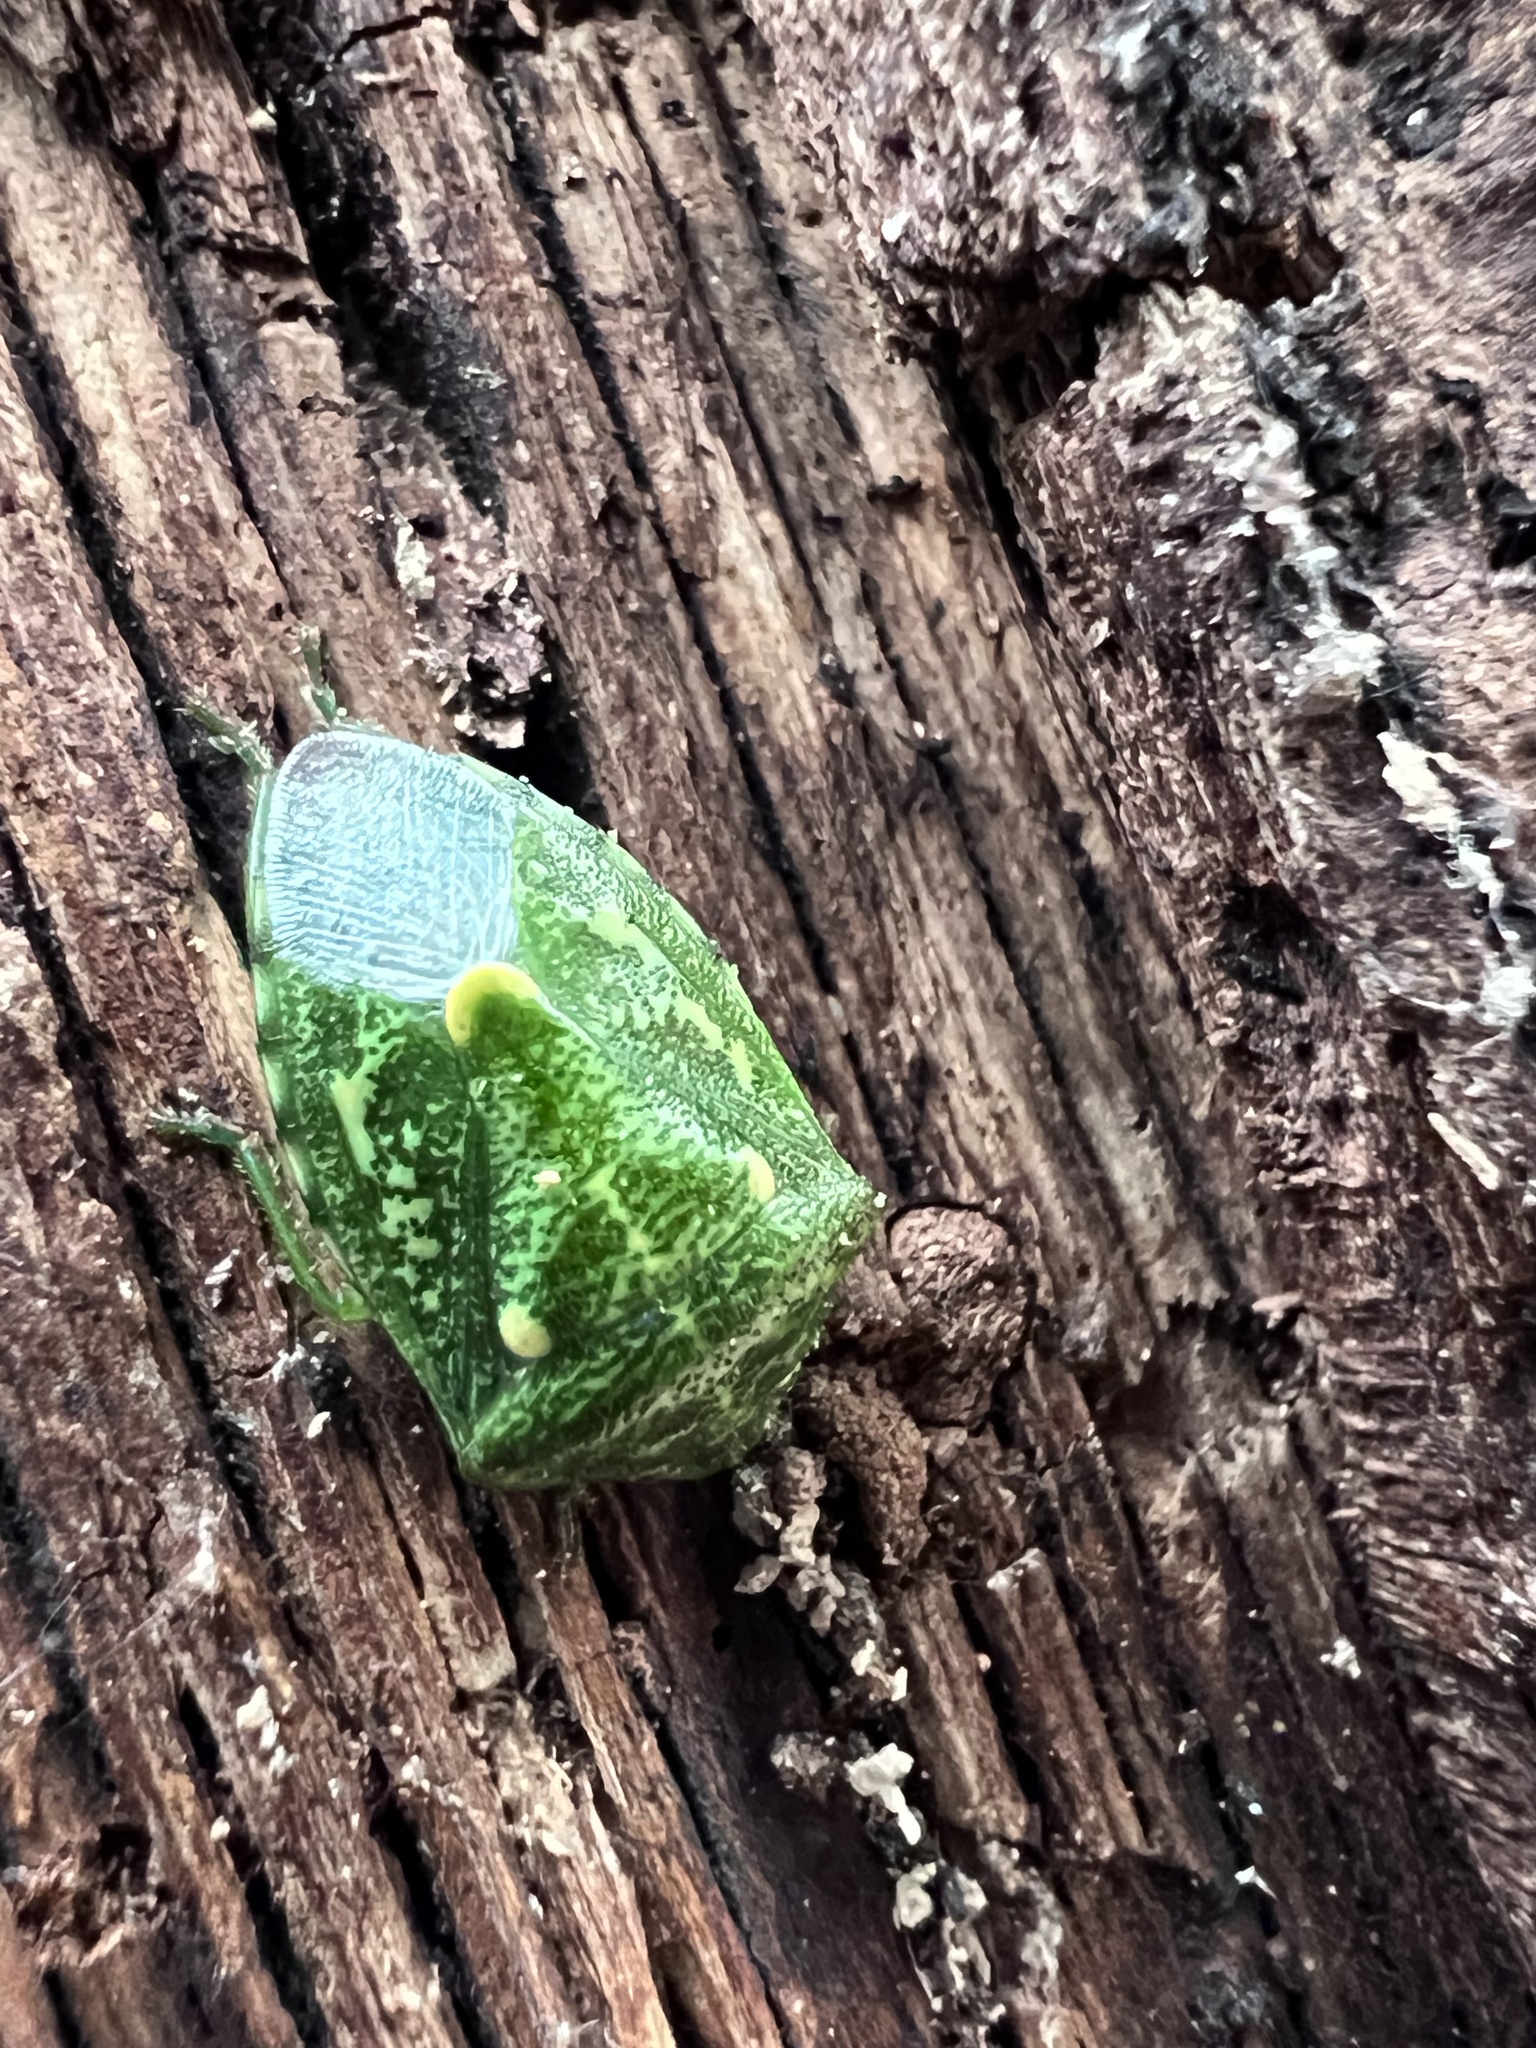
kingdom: Animalia
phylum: Arthropoda
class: Insecta
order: Hemiptera
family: Pentatomidae
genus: Banasa
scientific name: Banasa euchlora
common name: Cedar berry bug
